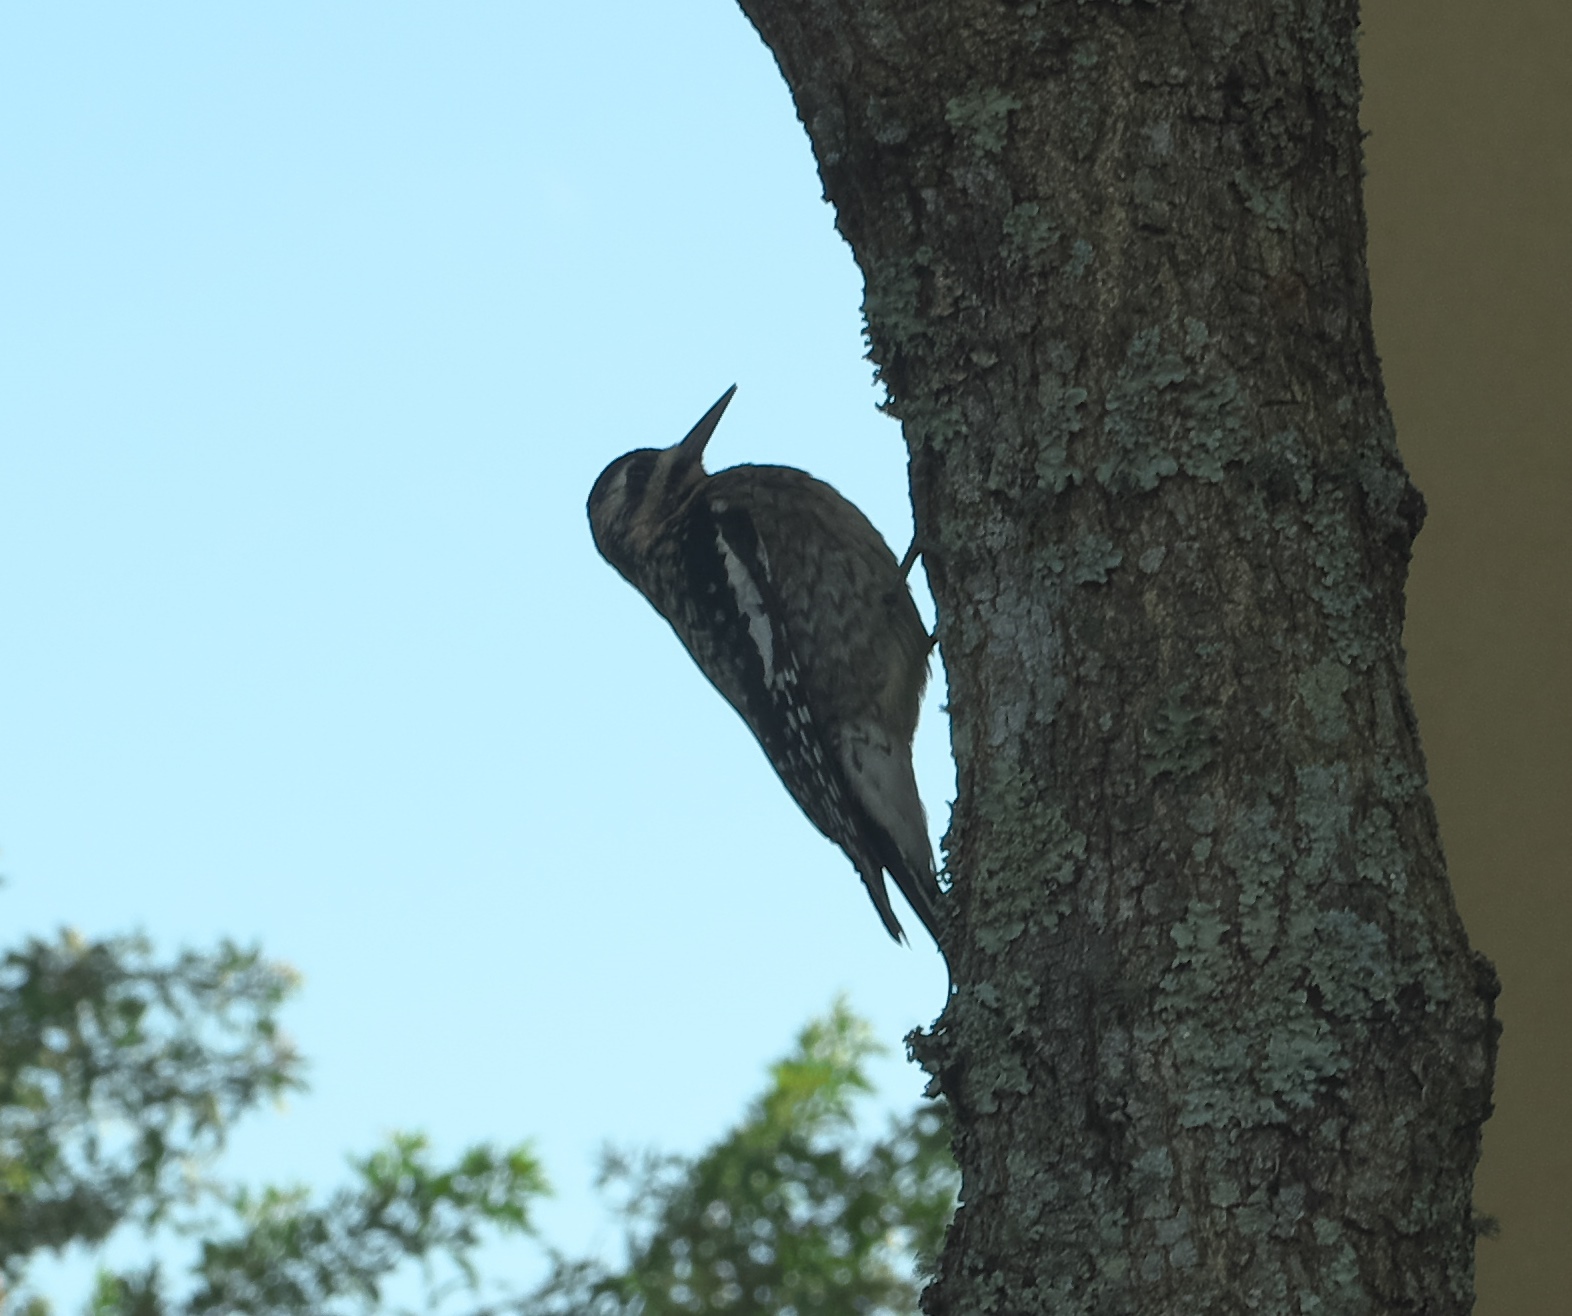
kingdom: Animalia
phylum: Chordata
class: Aves
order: Piciformes
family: Picidae
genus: Sphyrapicus
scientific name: Sphyrapicus varius
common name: Yellow-bellied sapsucker
